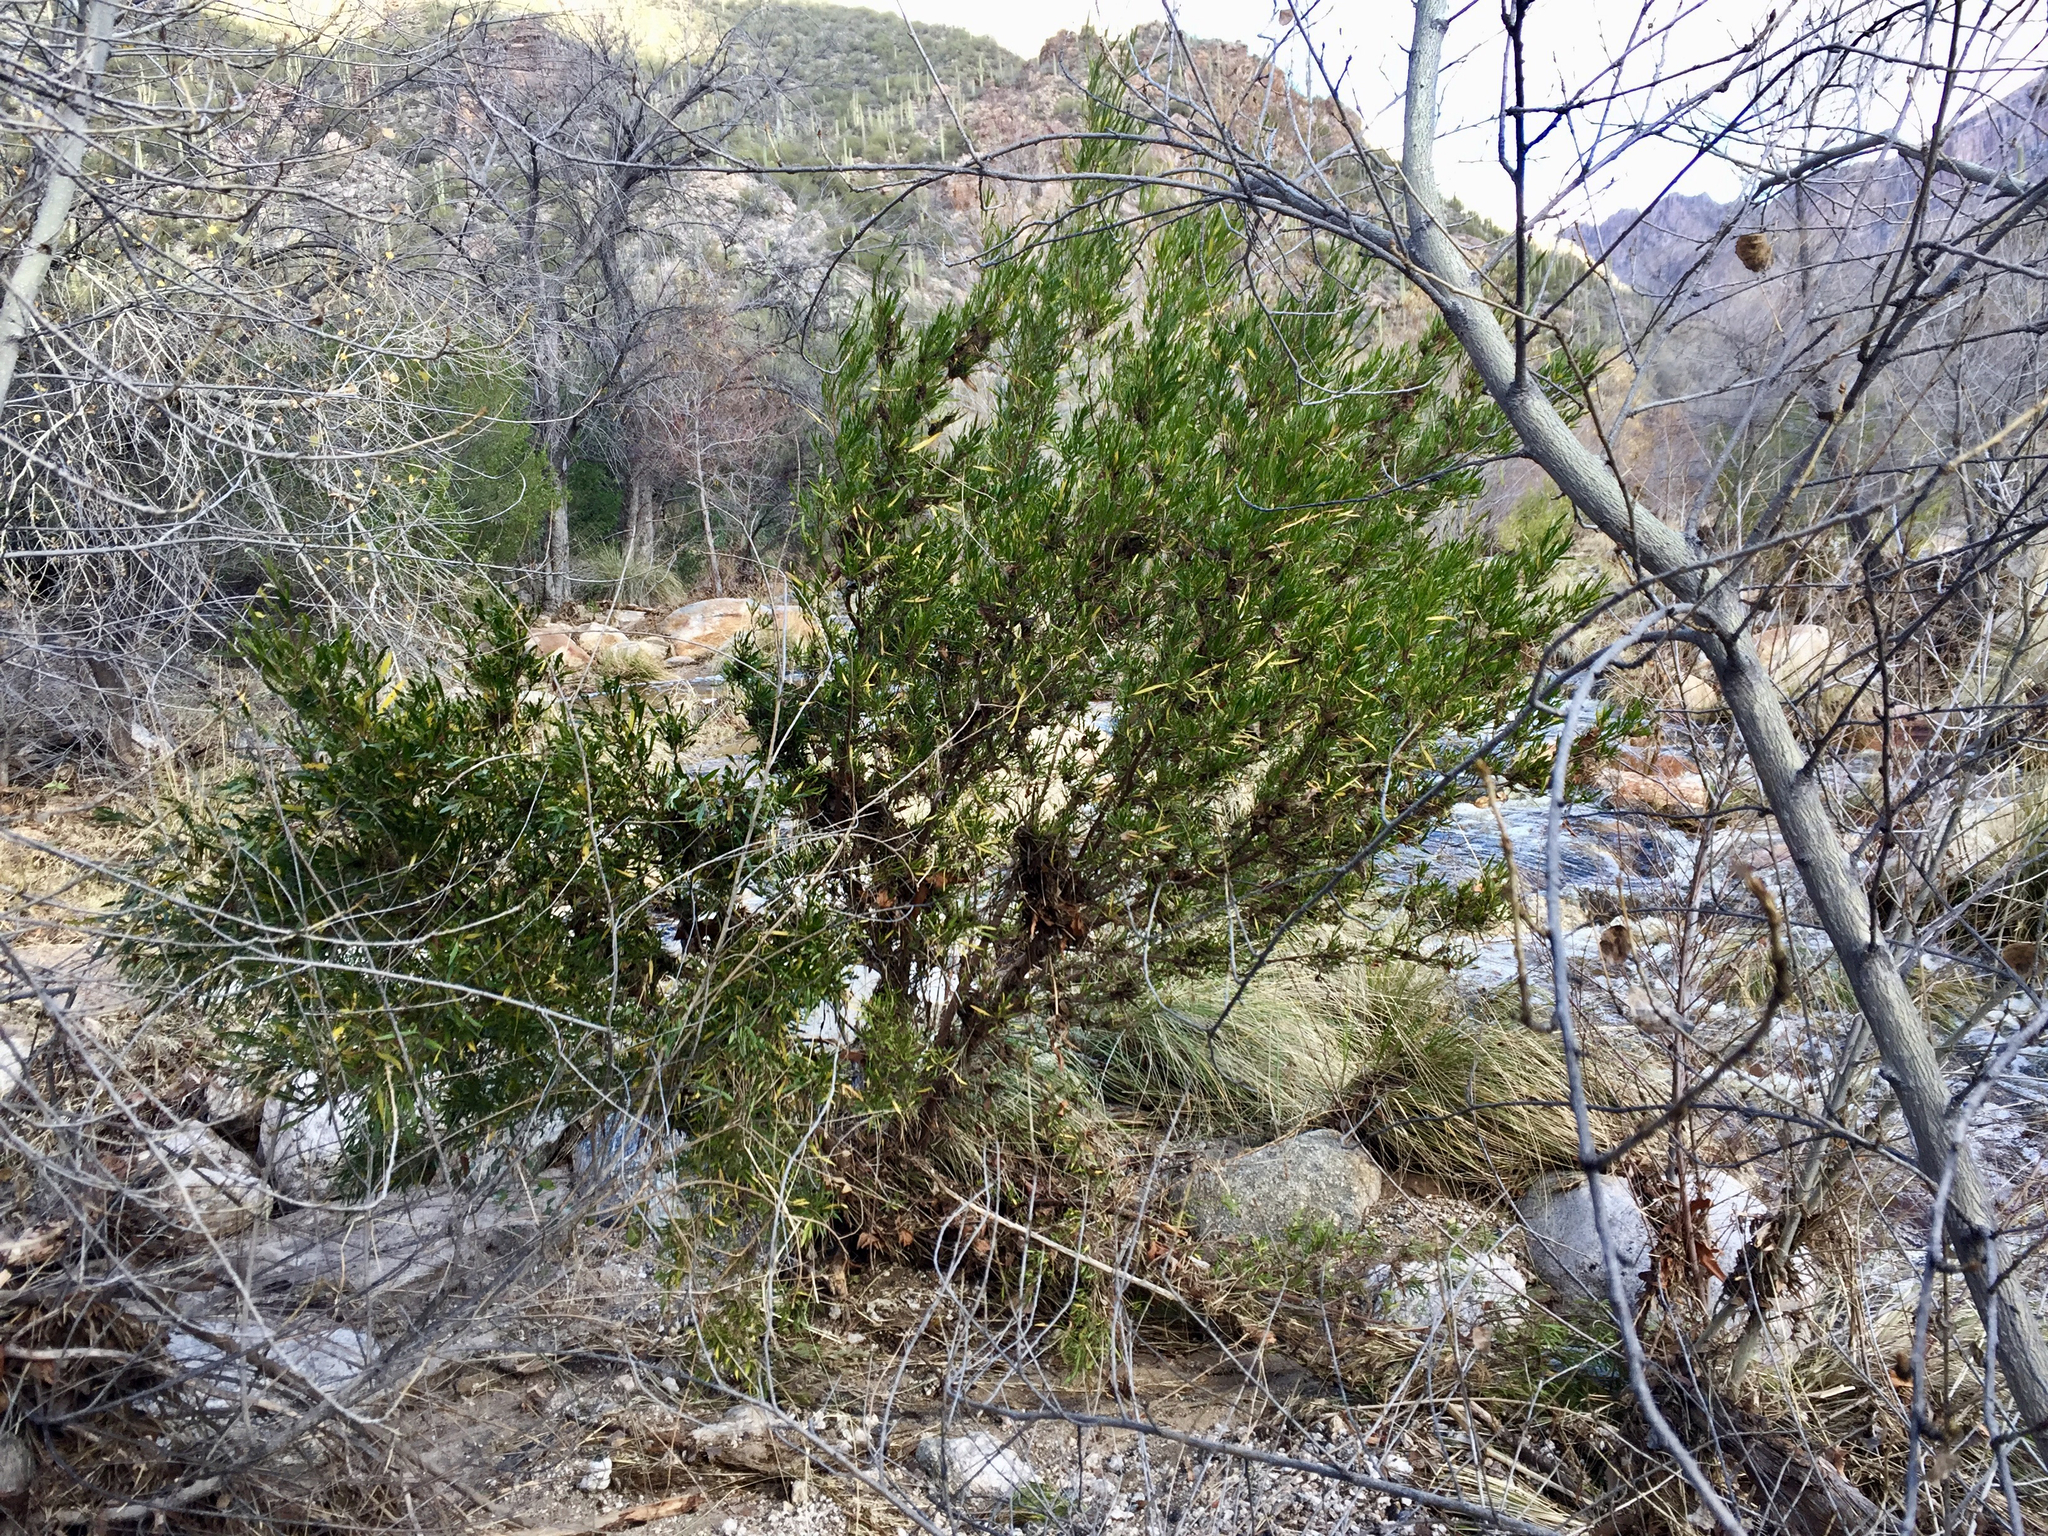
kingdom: Plantae
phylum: Tracheophyta
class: Magnoliopsida
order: Sapindales
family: Sapindaceae
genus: Dodonaea
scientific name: Dodonaea viscosa
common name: Hopbush
